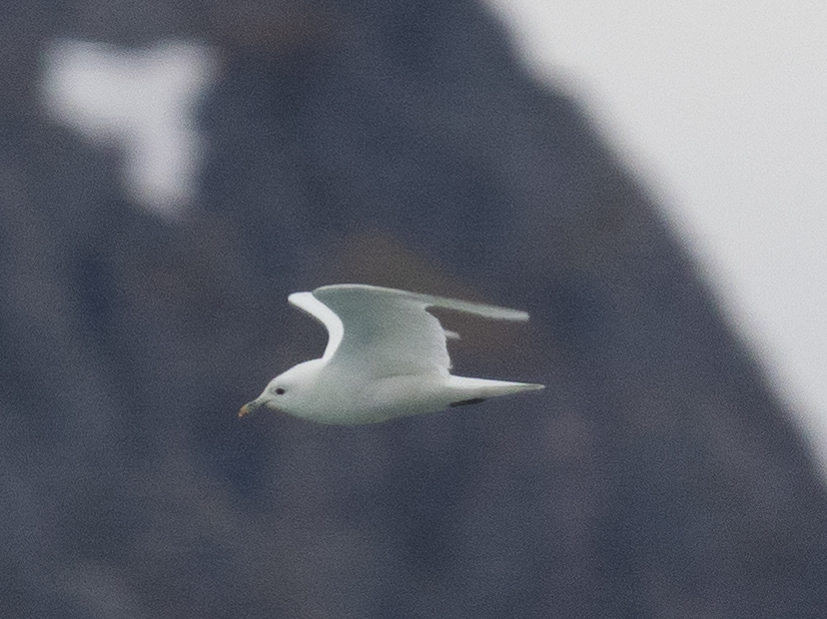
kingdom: Animalia
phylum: Chordata
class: Aves
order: Charadriiformes
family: Laridae
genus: Pagophila
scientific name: Pagophila eburnea
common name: Ivory gull
